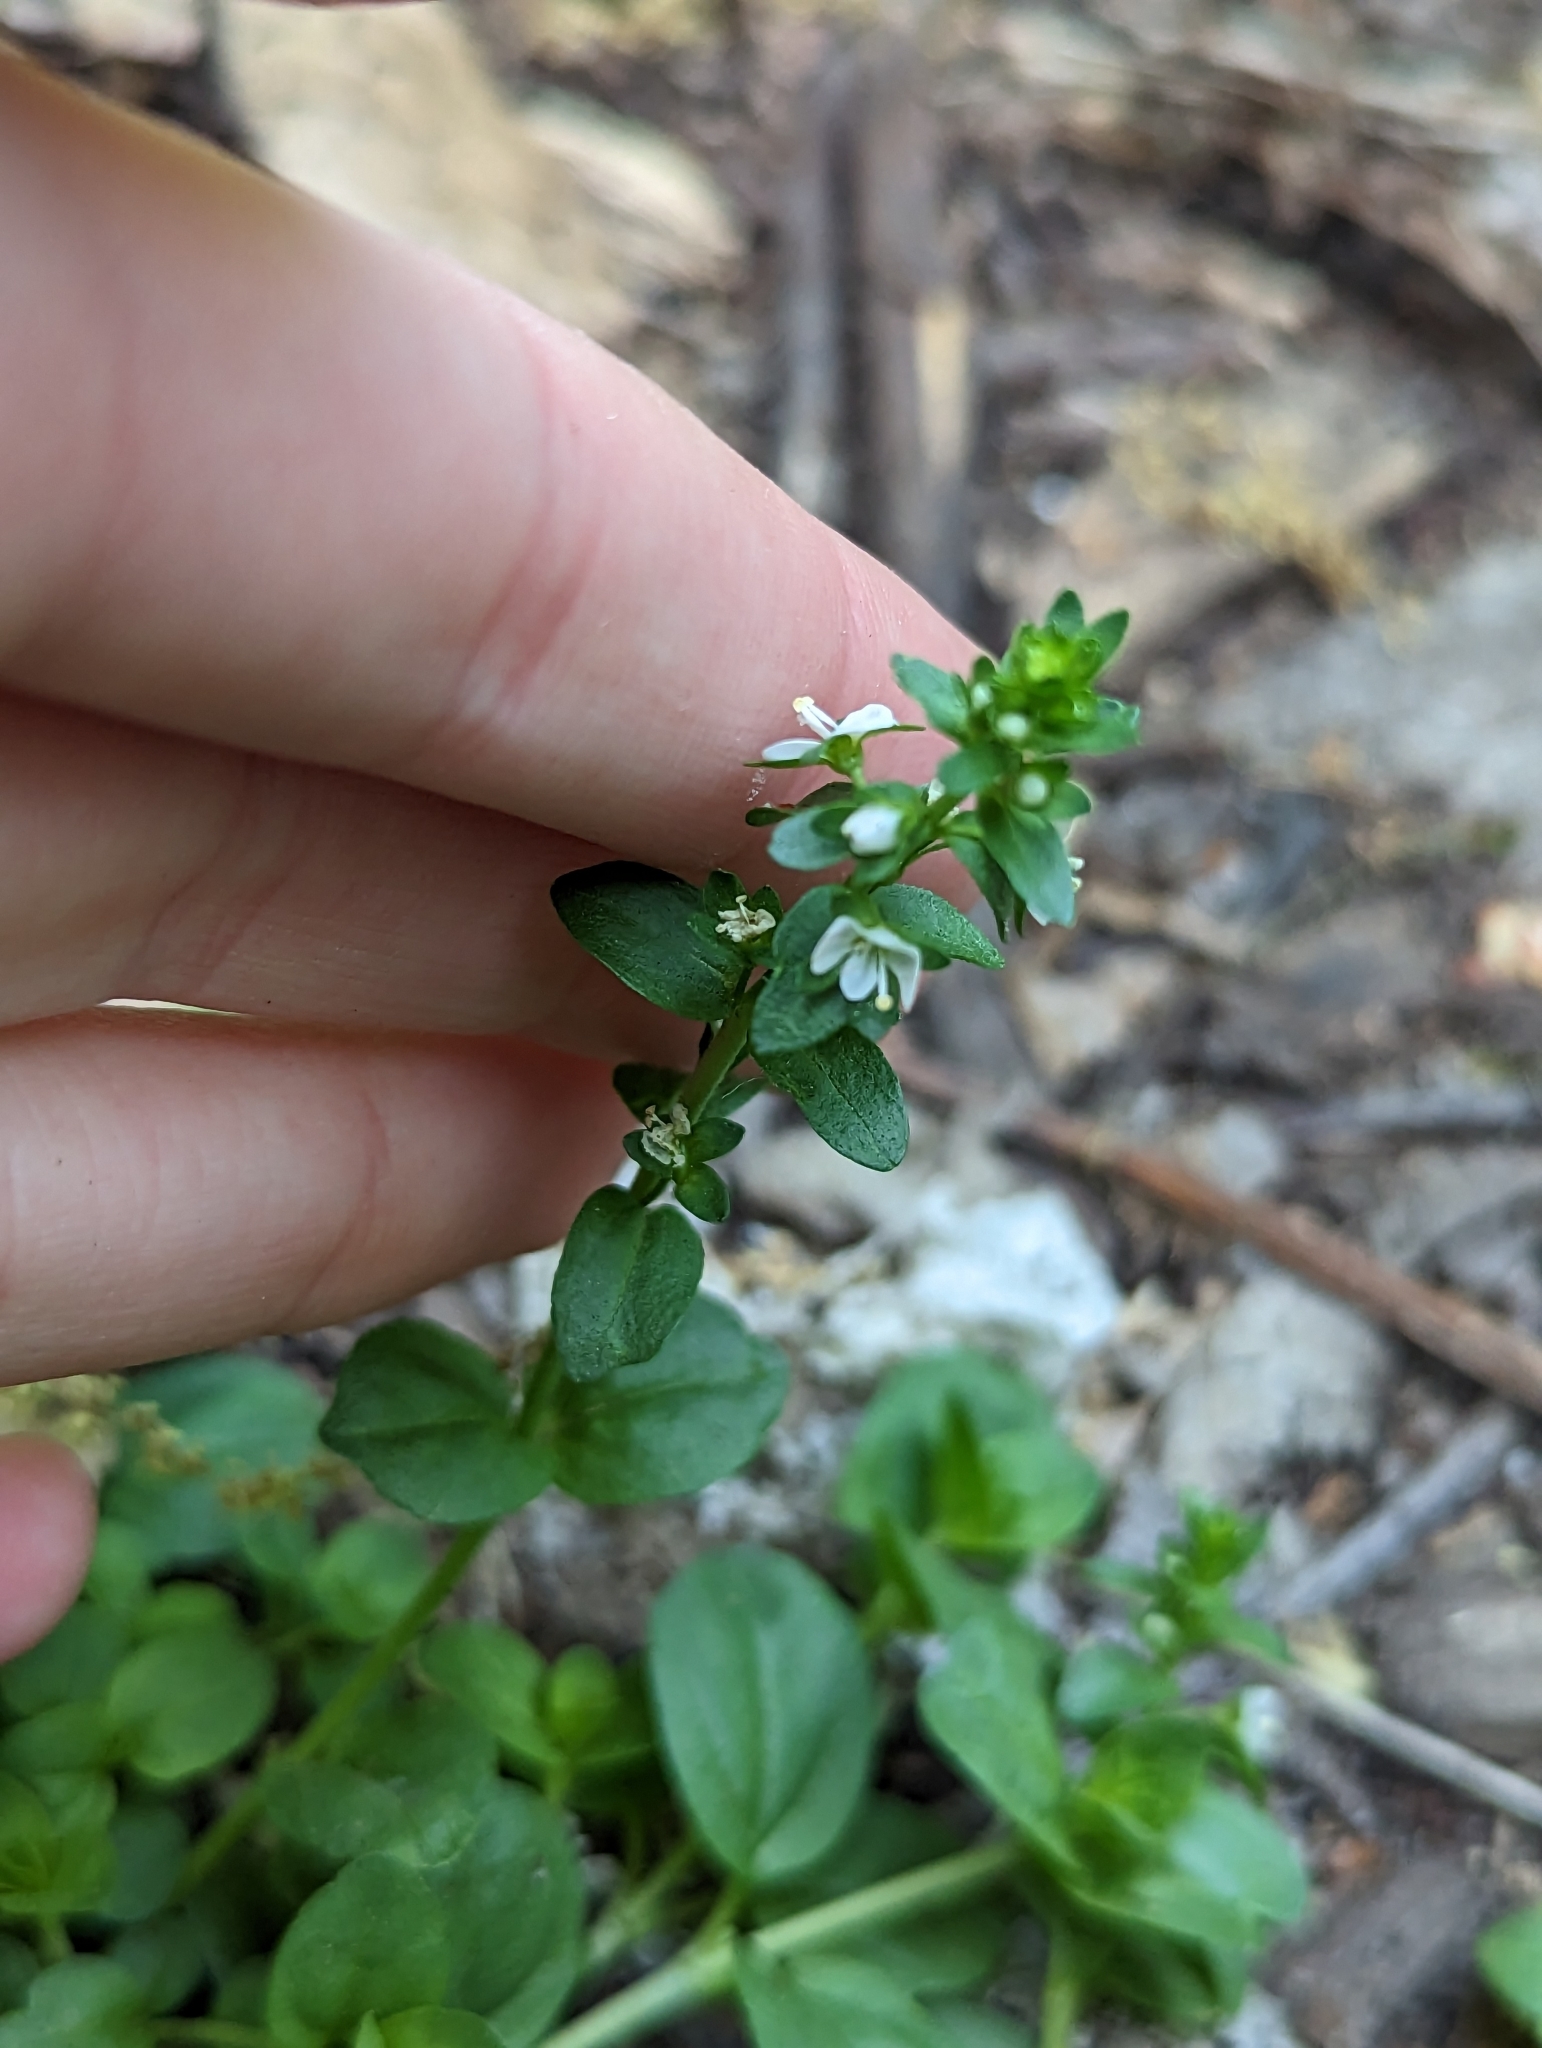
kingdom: Plantae
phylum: Tracheophyta
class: Magnoliopsida
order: Lamiales
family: Plantaginaceae
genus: Veronica
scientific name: Veronica serpyllifolia
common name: Thyme-leaved speedwell
